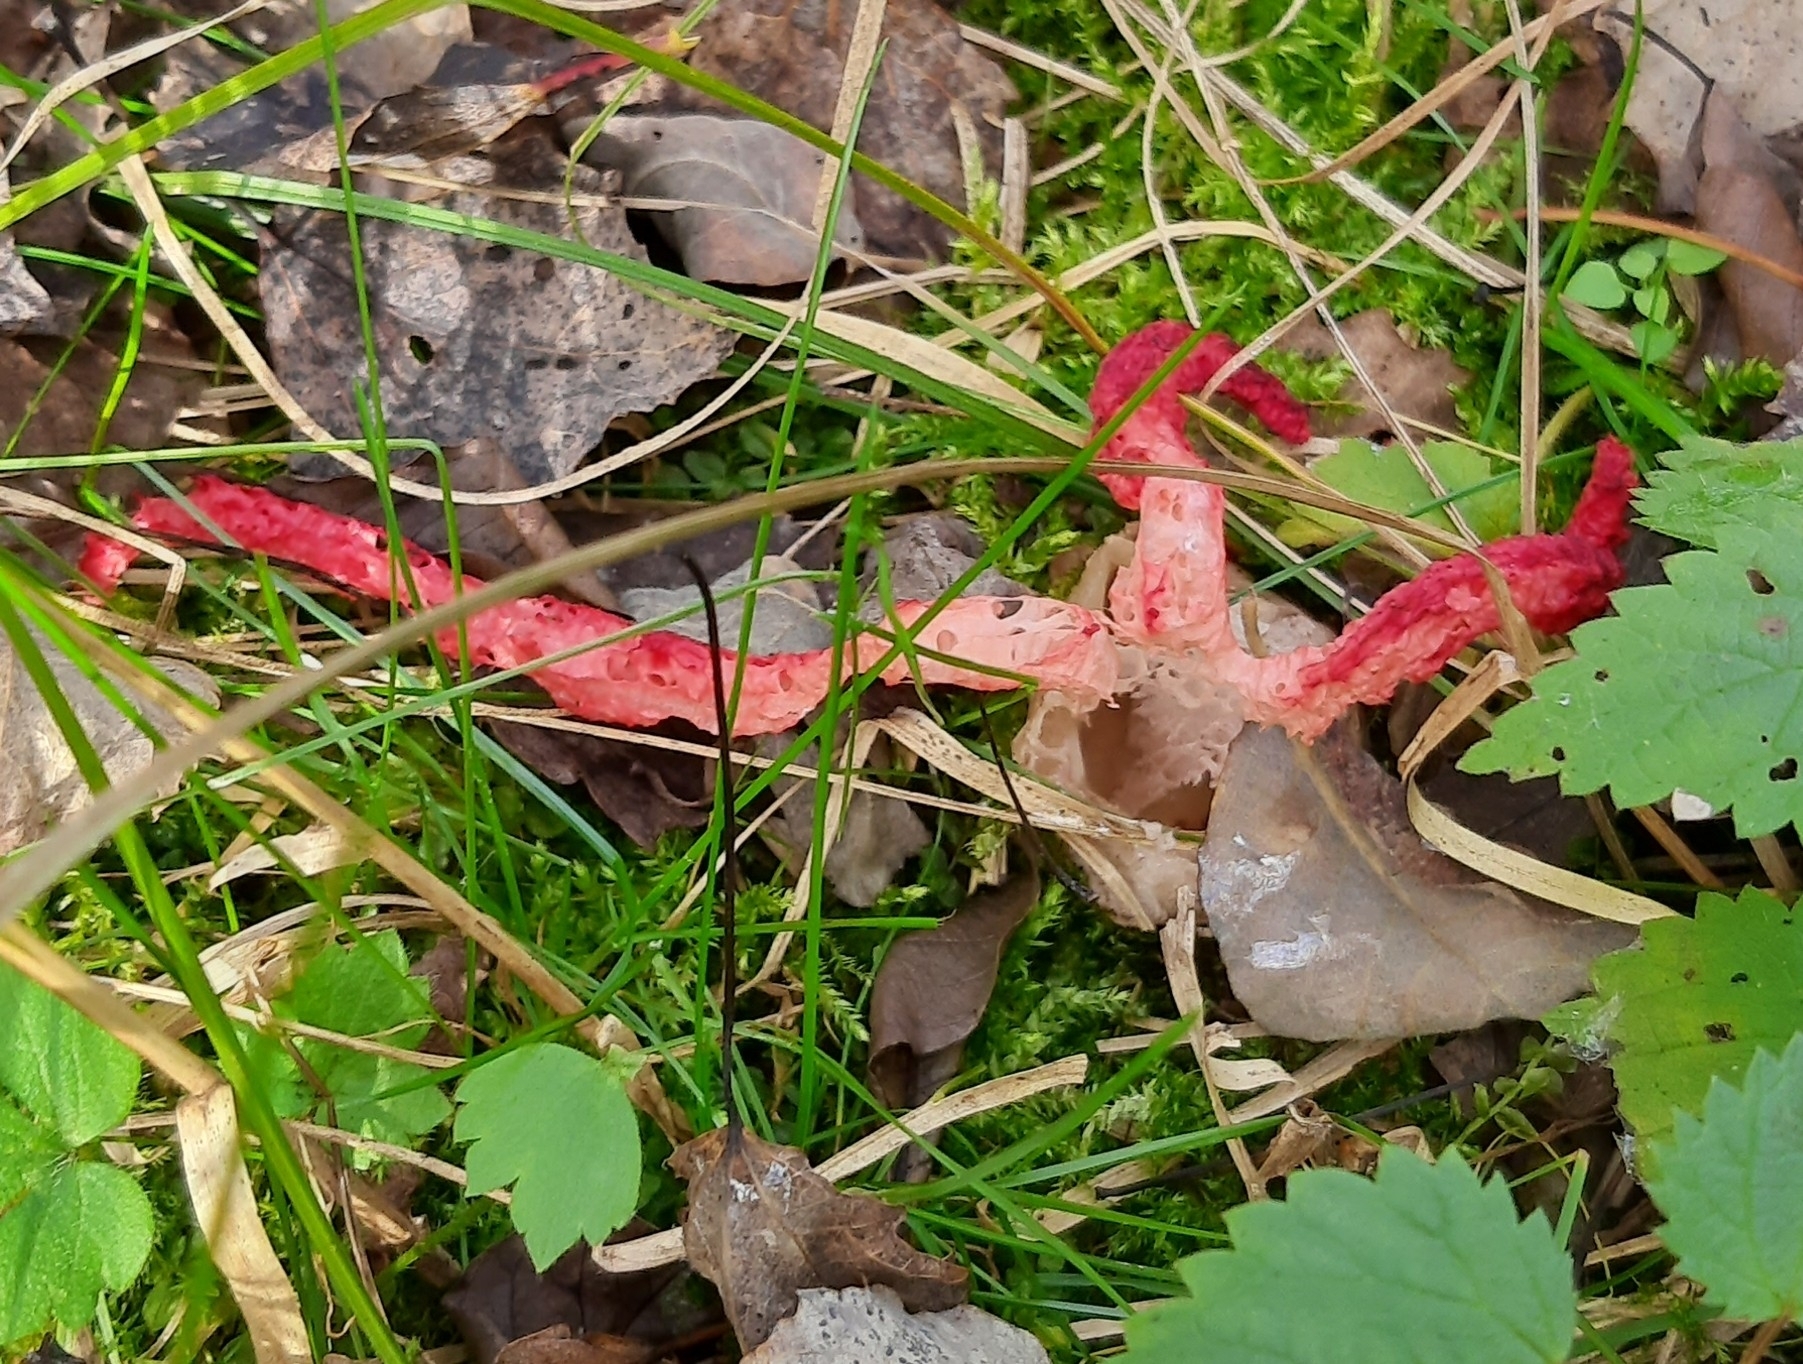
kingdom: Fungi
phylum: Basidiomycota
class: Agaricomycetes
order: Phallales
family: Phallaceae
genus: Clathrus
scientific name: Clathrus archeri
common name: Devil's fingers
